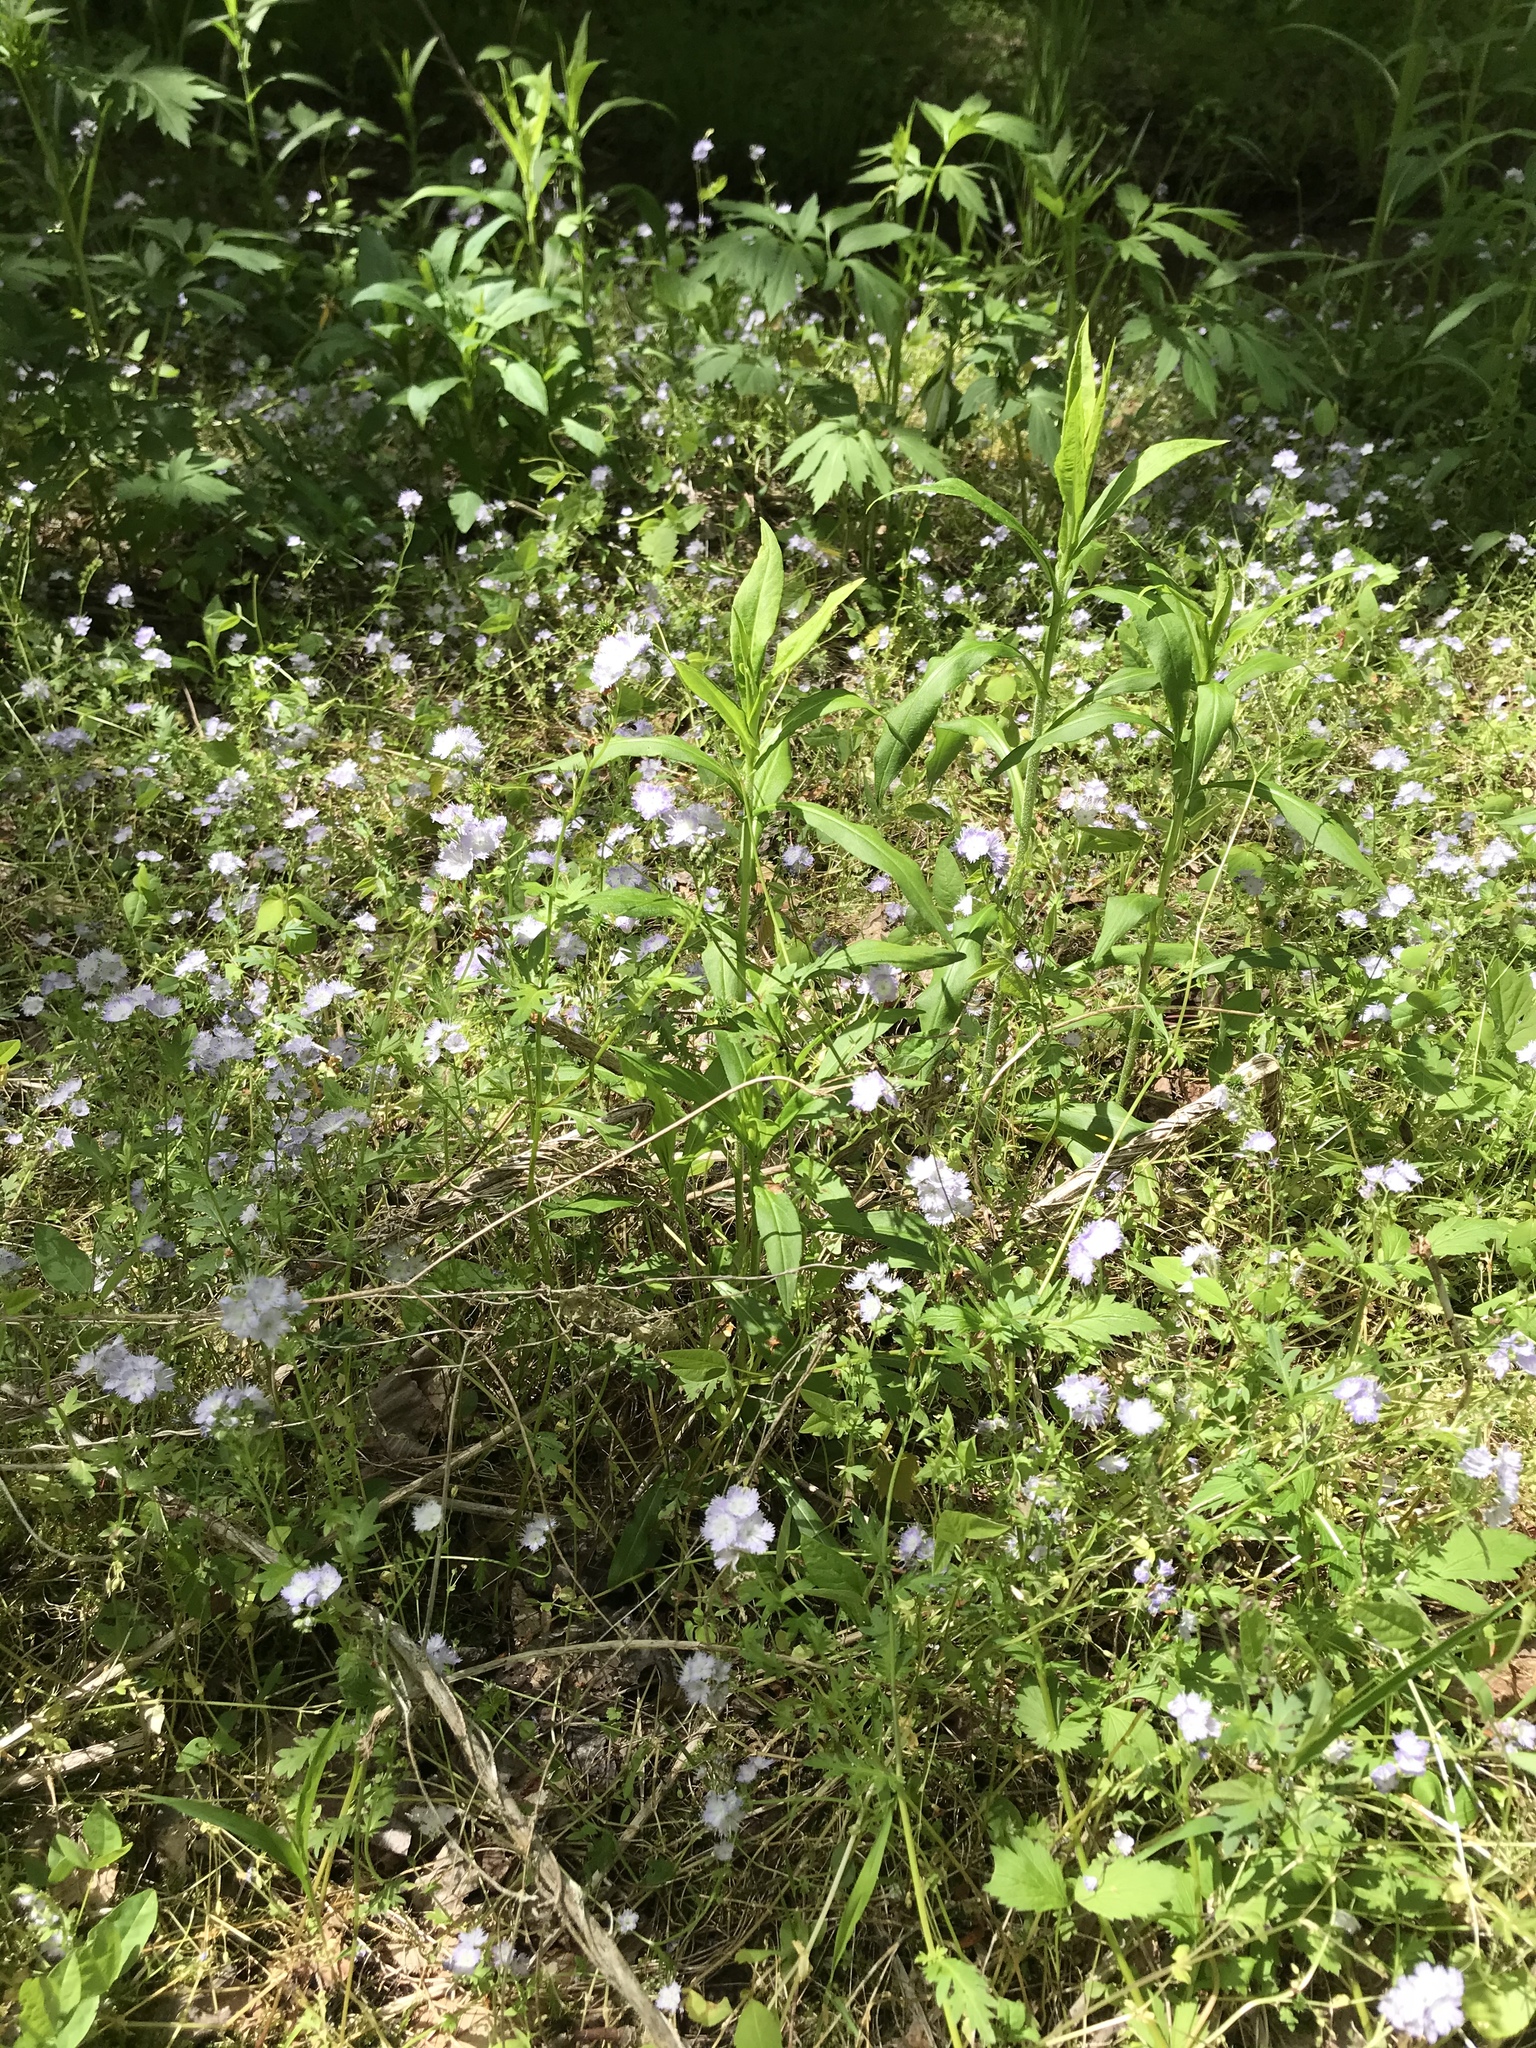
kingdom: Plantae
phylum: Tracheophyta
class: Magnoliopsida
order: Boraginales
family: Hydrophyllaceae
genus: Phacelia
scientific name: Phacelia purshii
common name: Miami-mist
